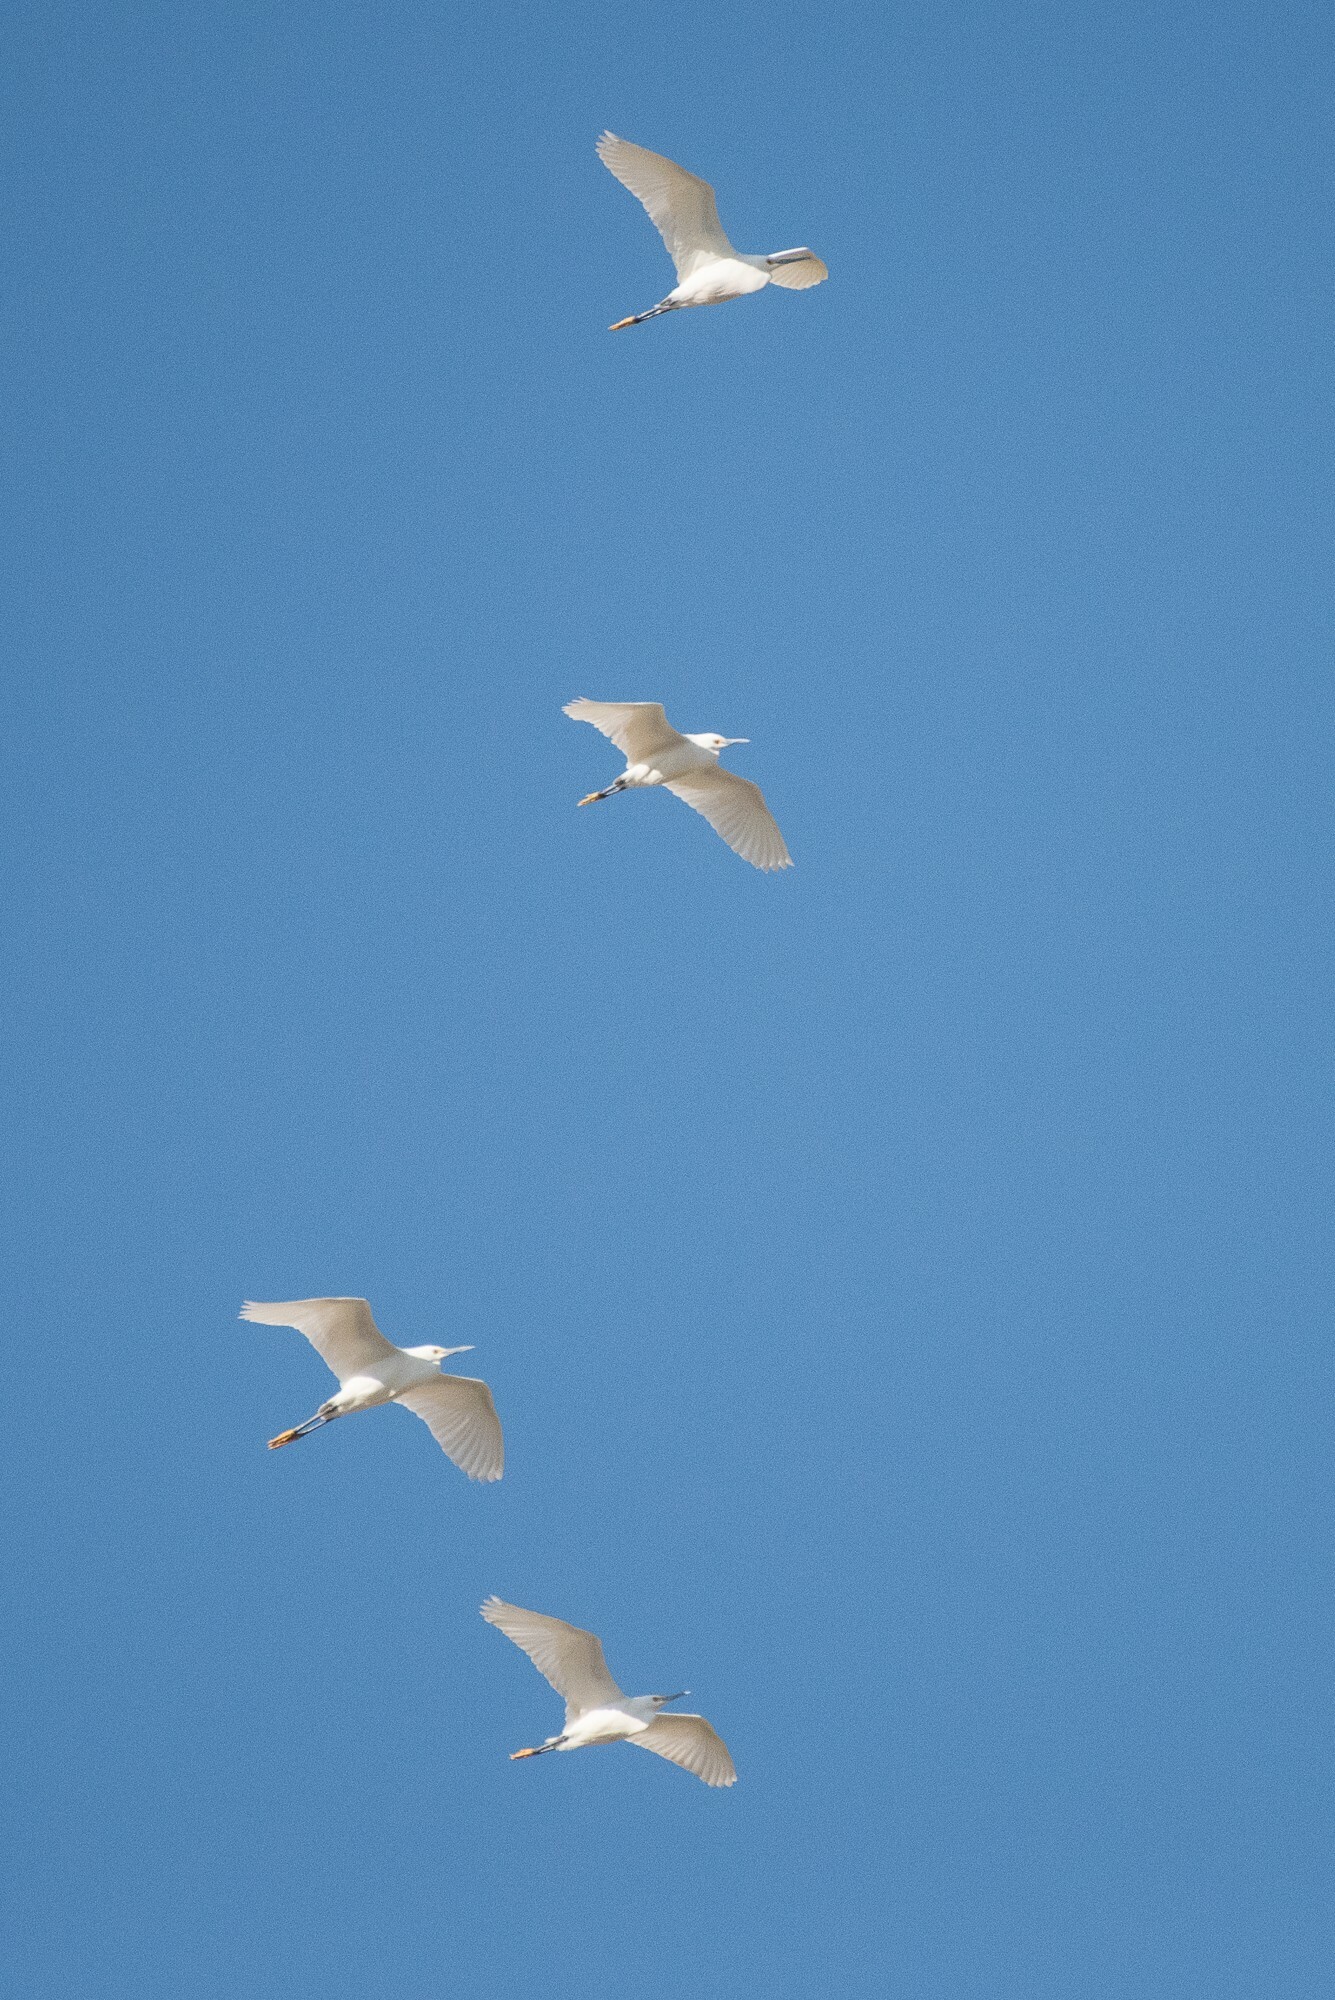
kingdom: Animalia
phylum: Chordata
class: Aves
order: Pelecaniformes
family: Ardeidae
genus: Egretta
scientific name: Egretta thula
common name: Snowy egret
